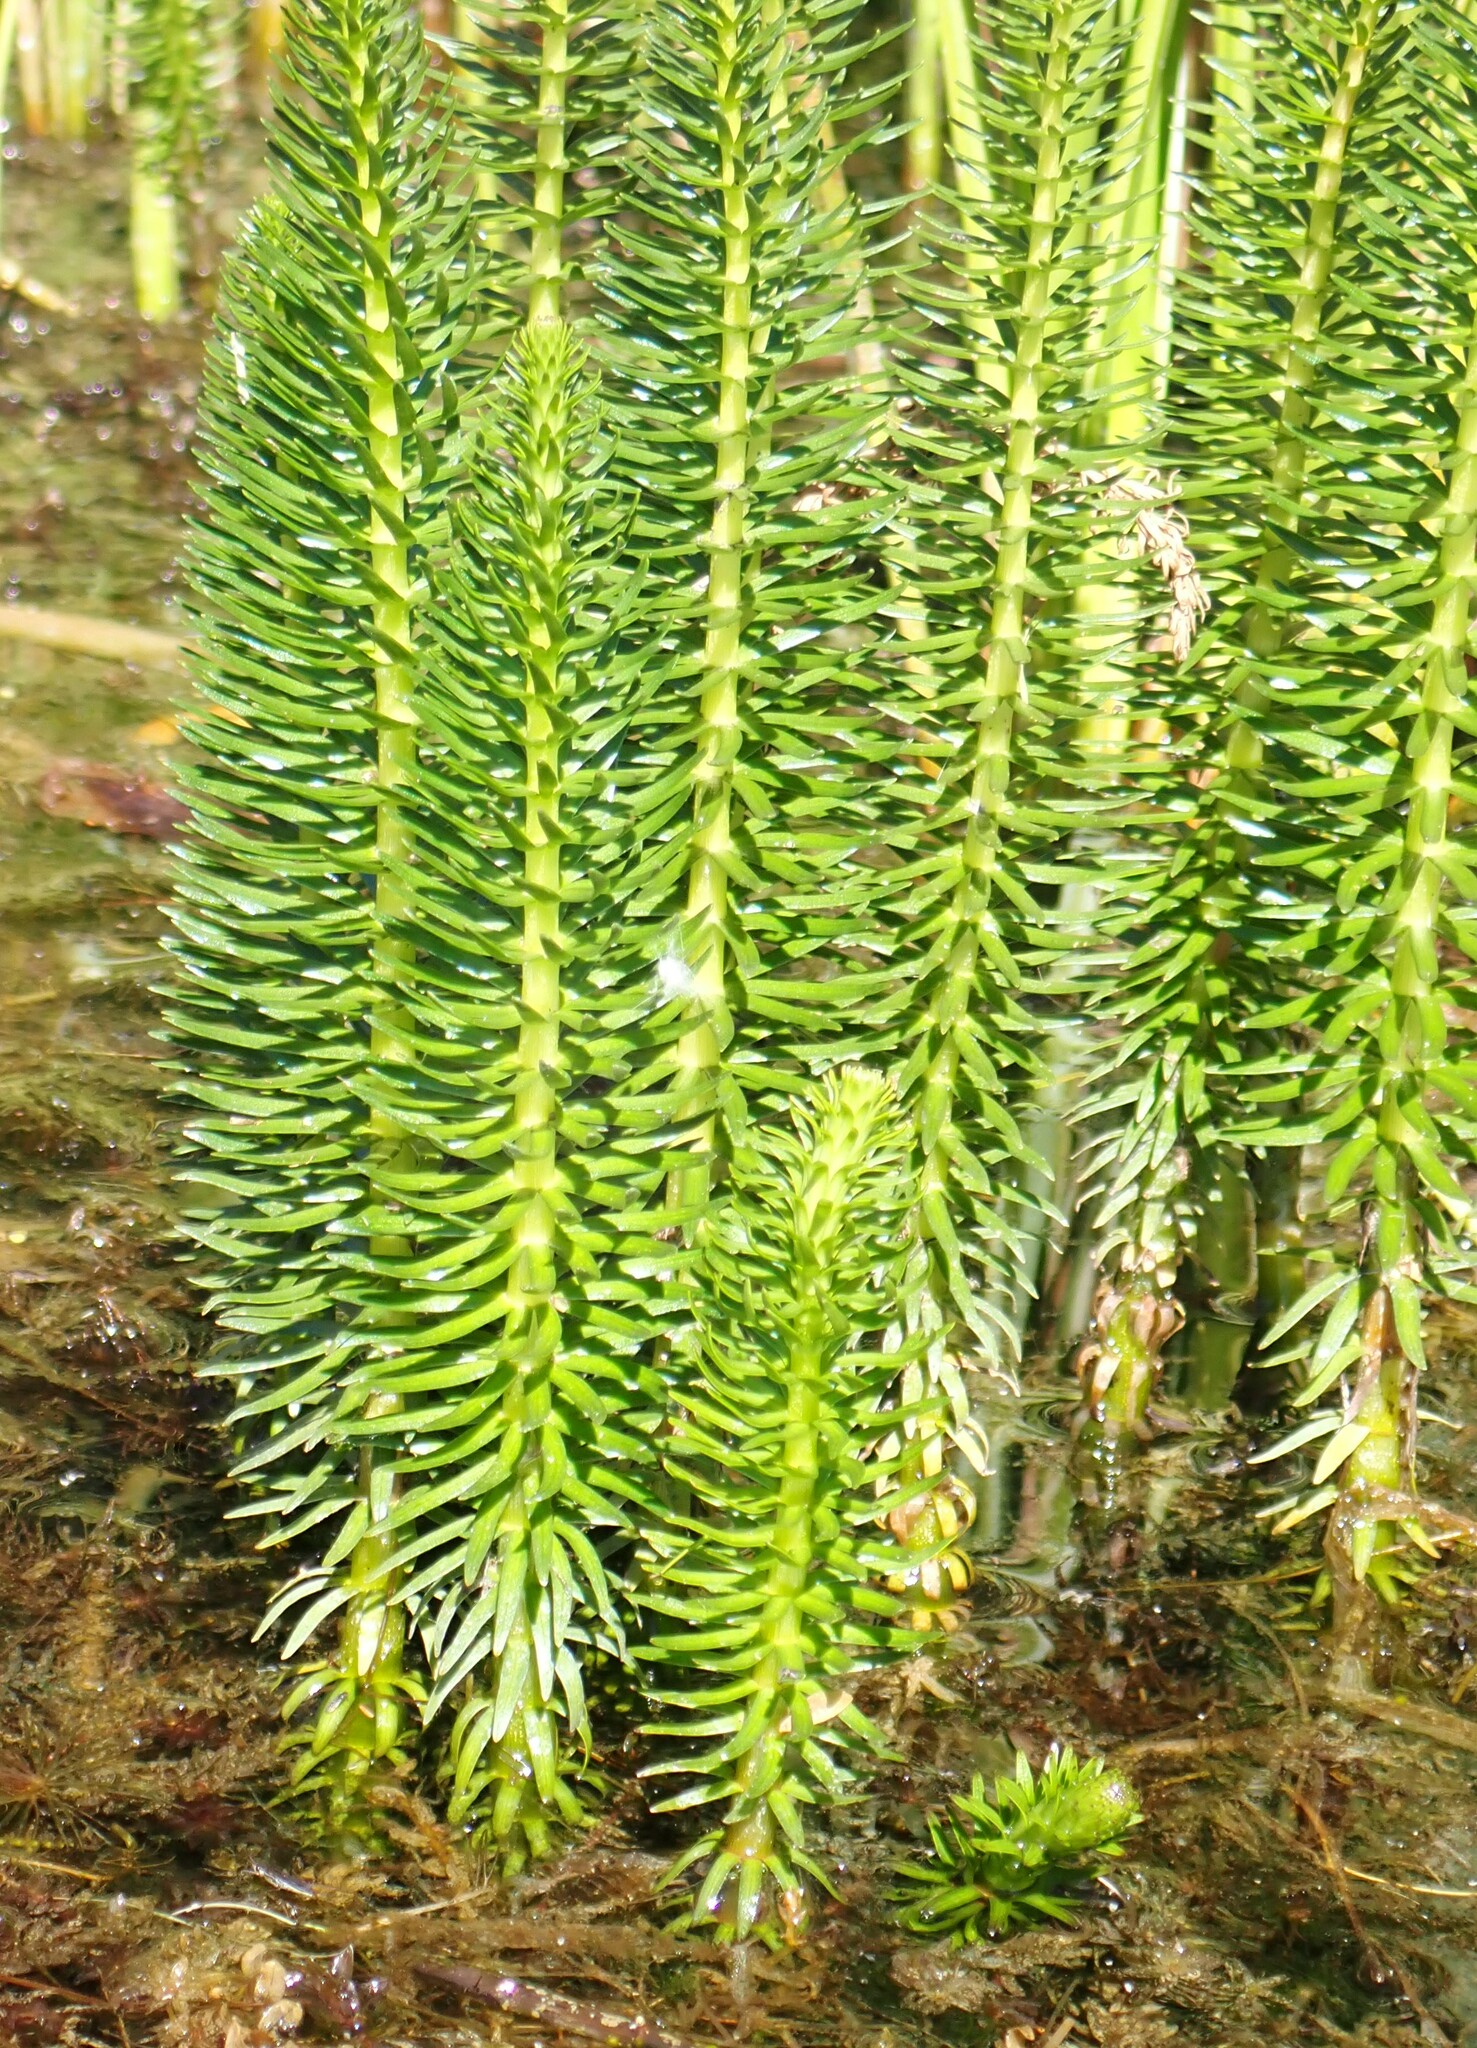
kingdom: Plantae
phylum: Tracheophyta
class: Magnoliopsida
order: Lamiales
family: Plantaginaceae
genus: Hippuris
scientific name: Hippuris vulgaris
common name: Mare's-tail
